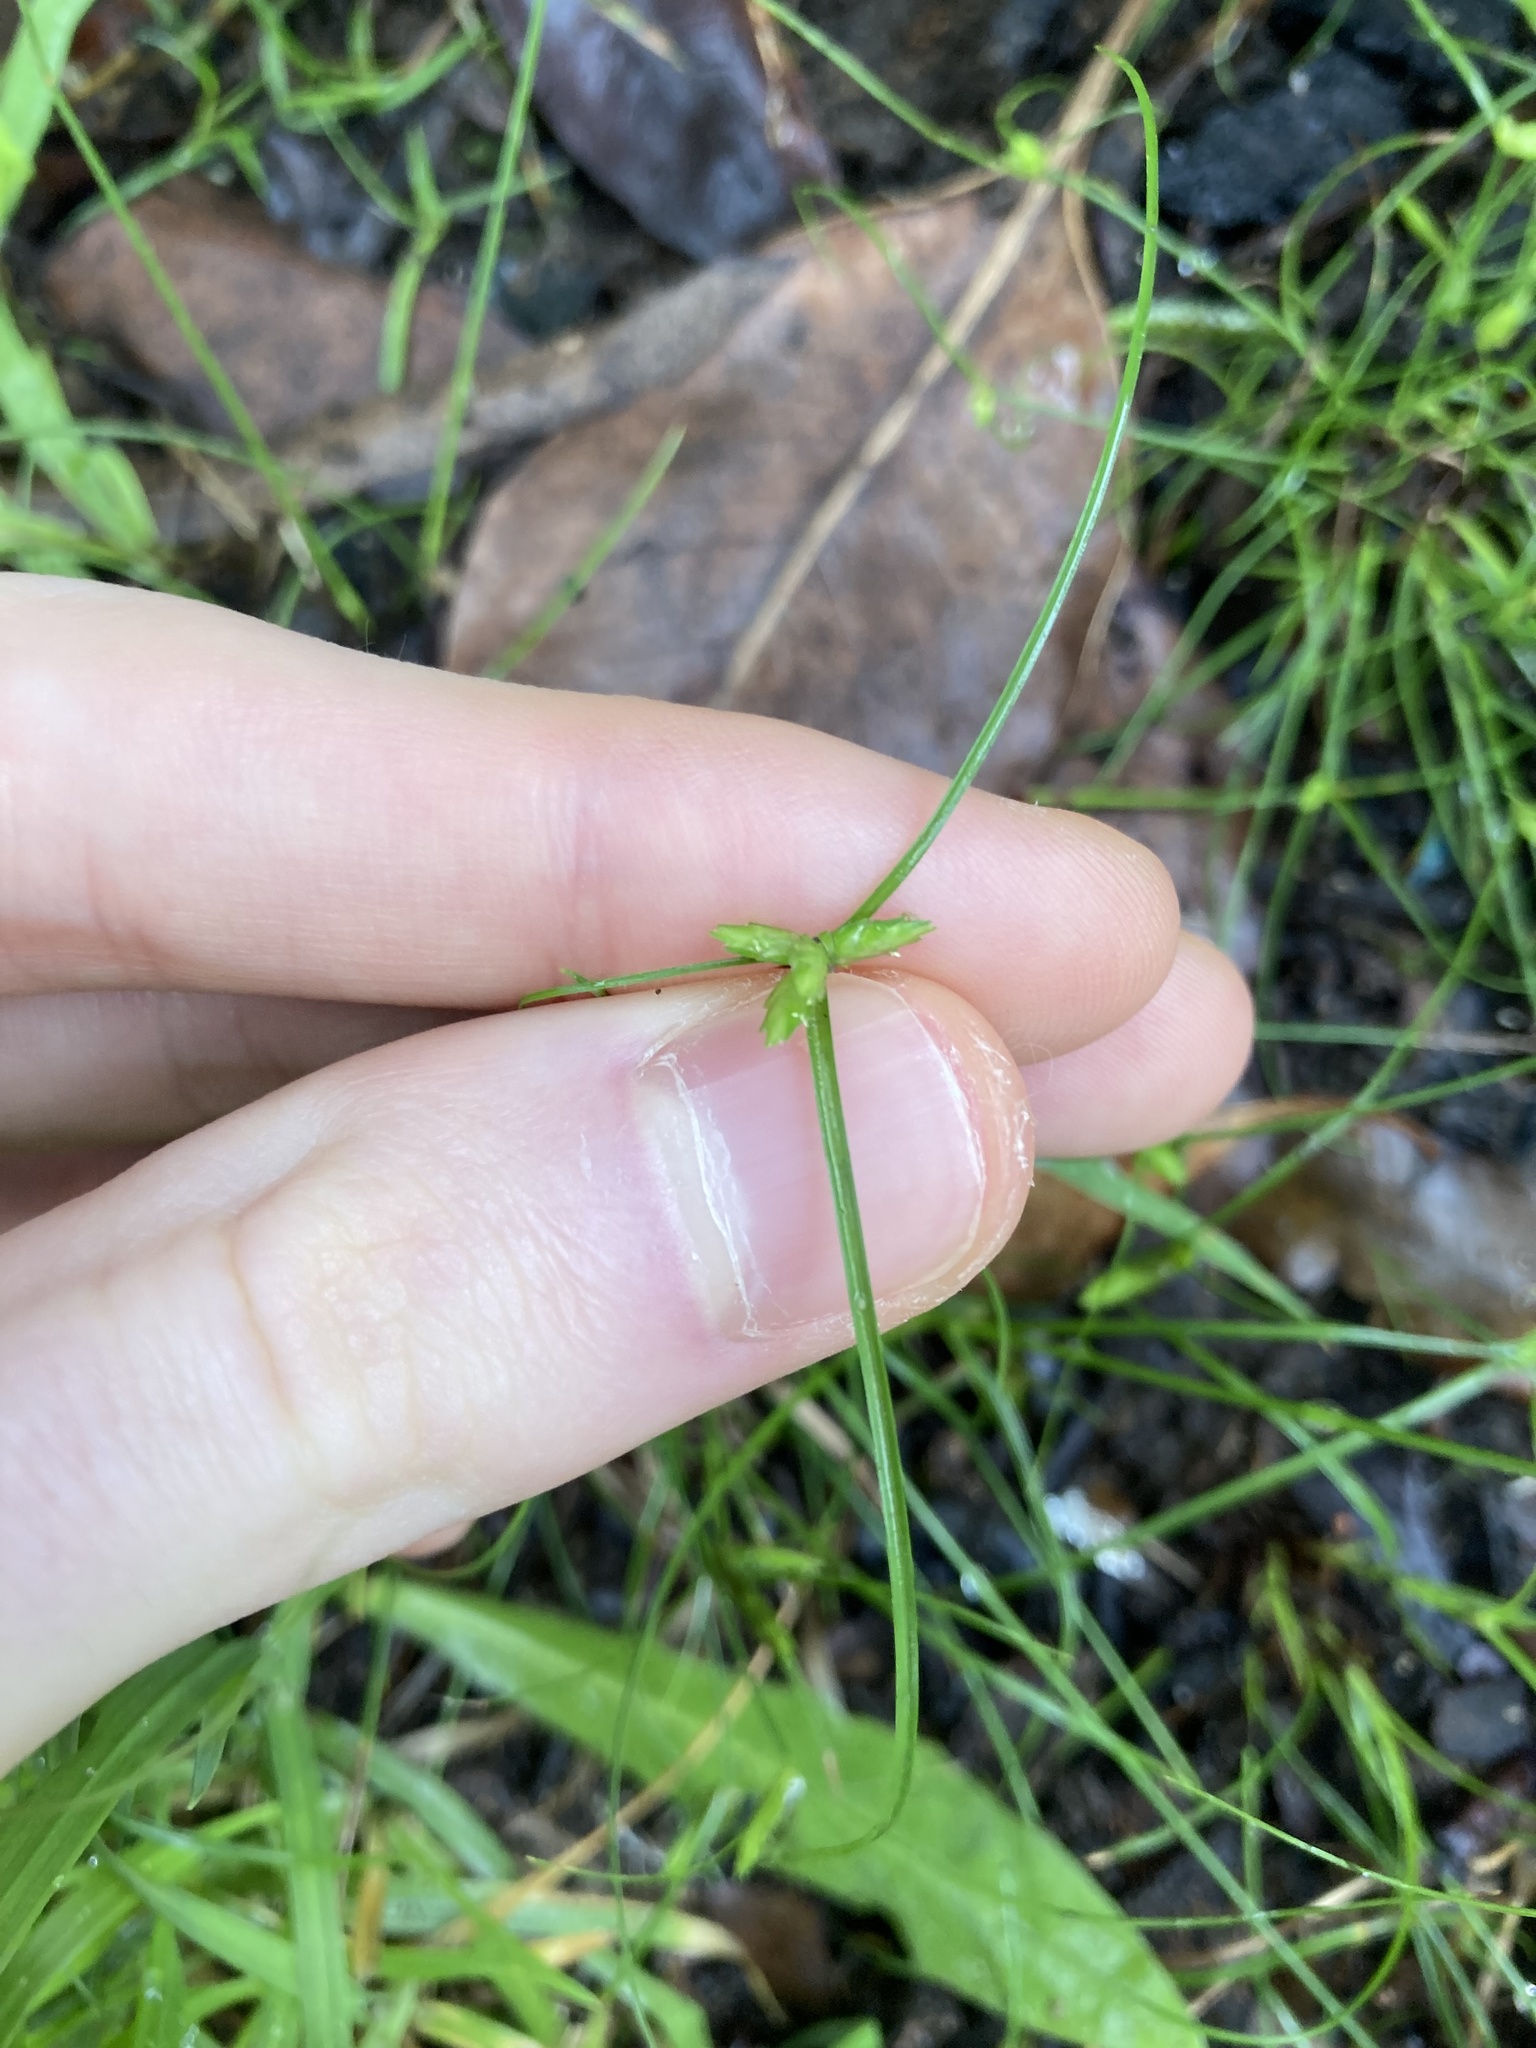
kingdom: Plantae
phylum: Tracheophyta
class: Liliopsida
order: Poales
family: Cyperaceae
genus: Cyperus
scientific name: Cyperus gracilis
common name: Slimjim flatsedge
